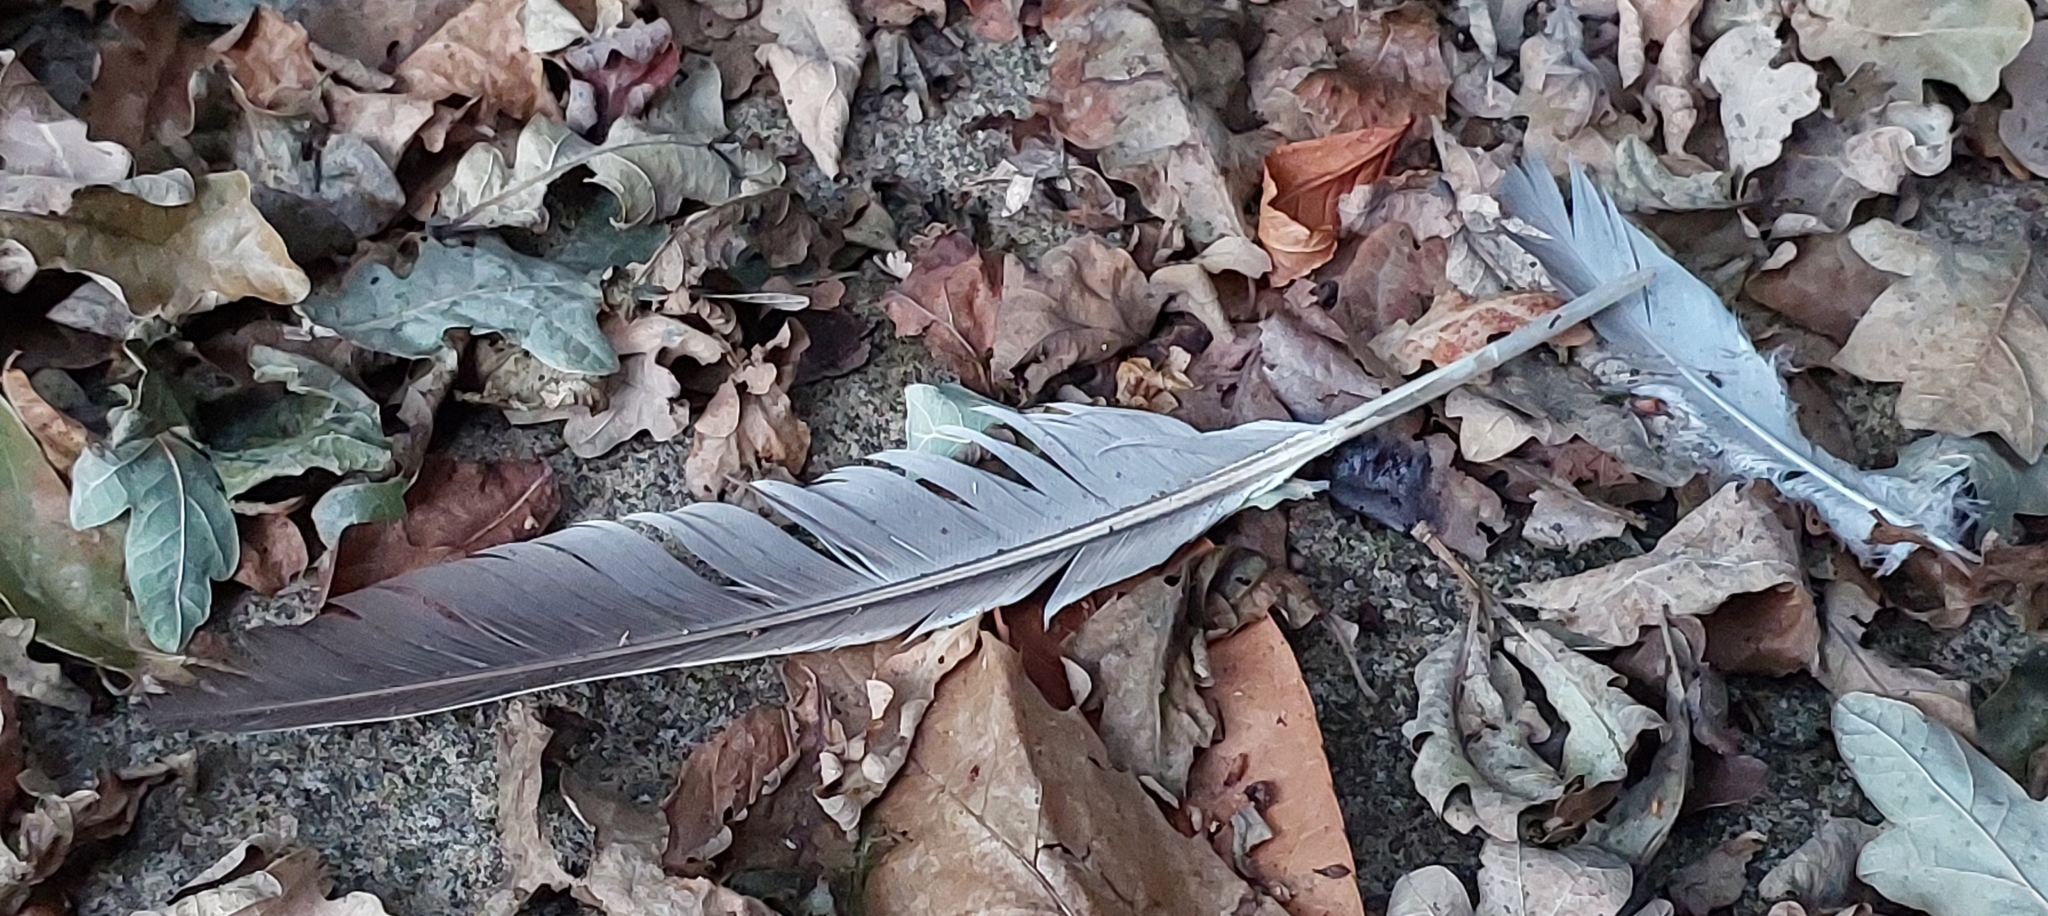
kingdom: Animalia
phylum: Chordata
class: Aves
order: Columbiformes
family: Columbidae
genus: Columba
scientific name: Columba palumbus
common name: Common wood pigeon
